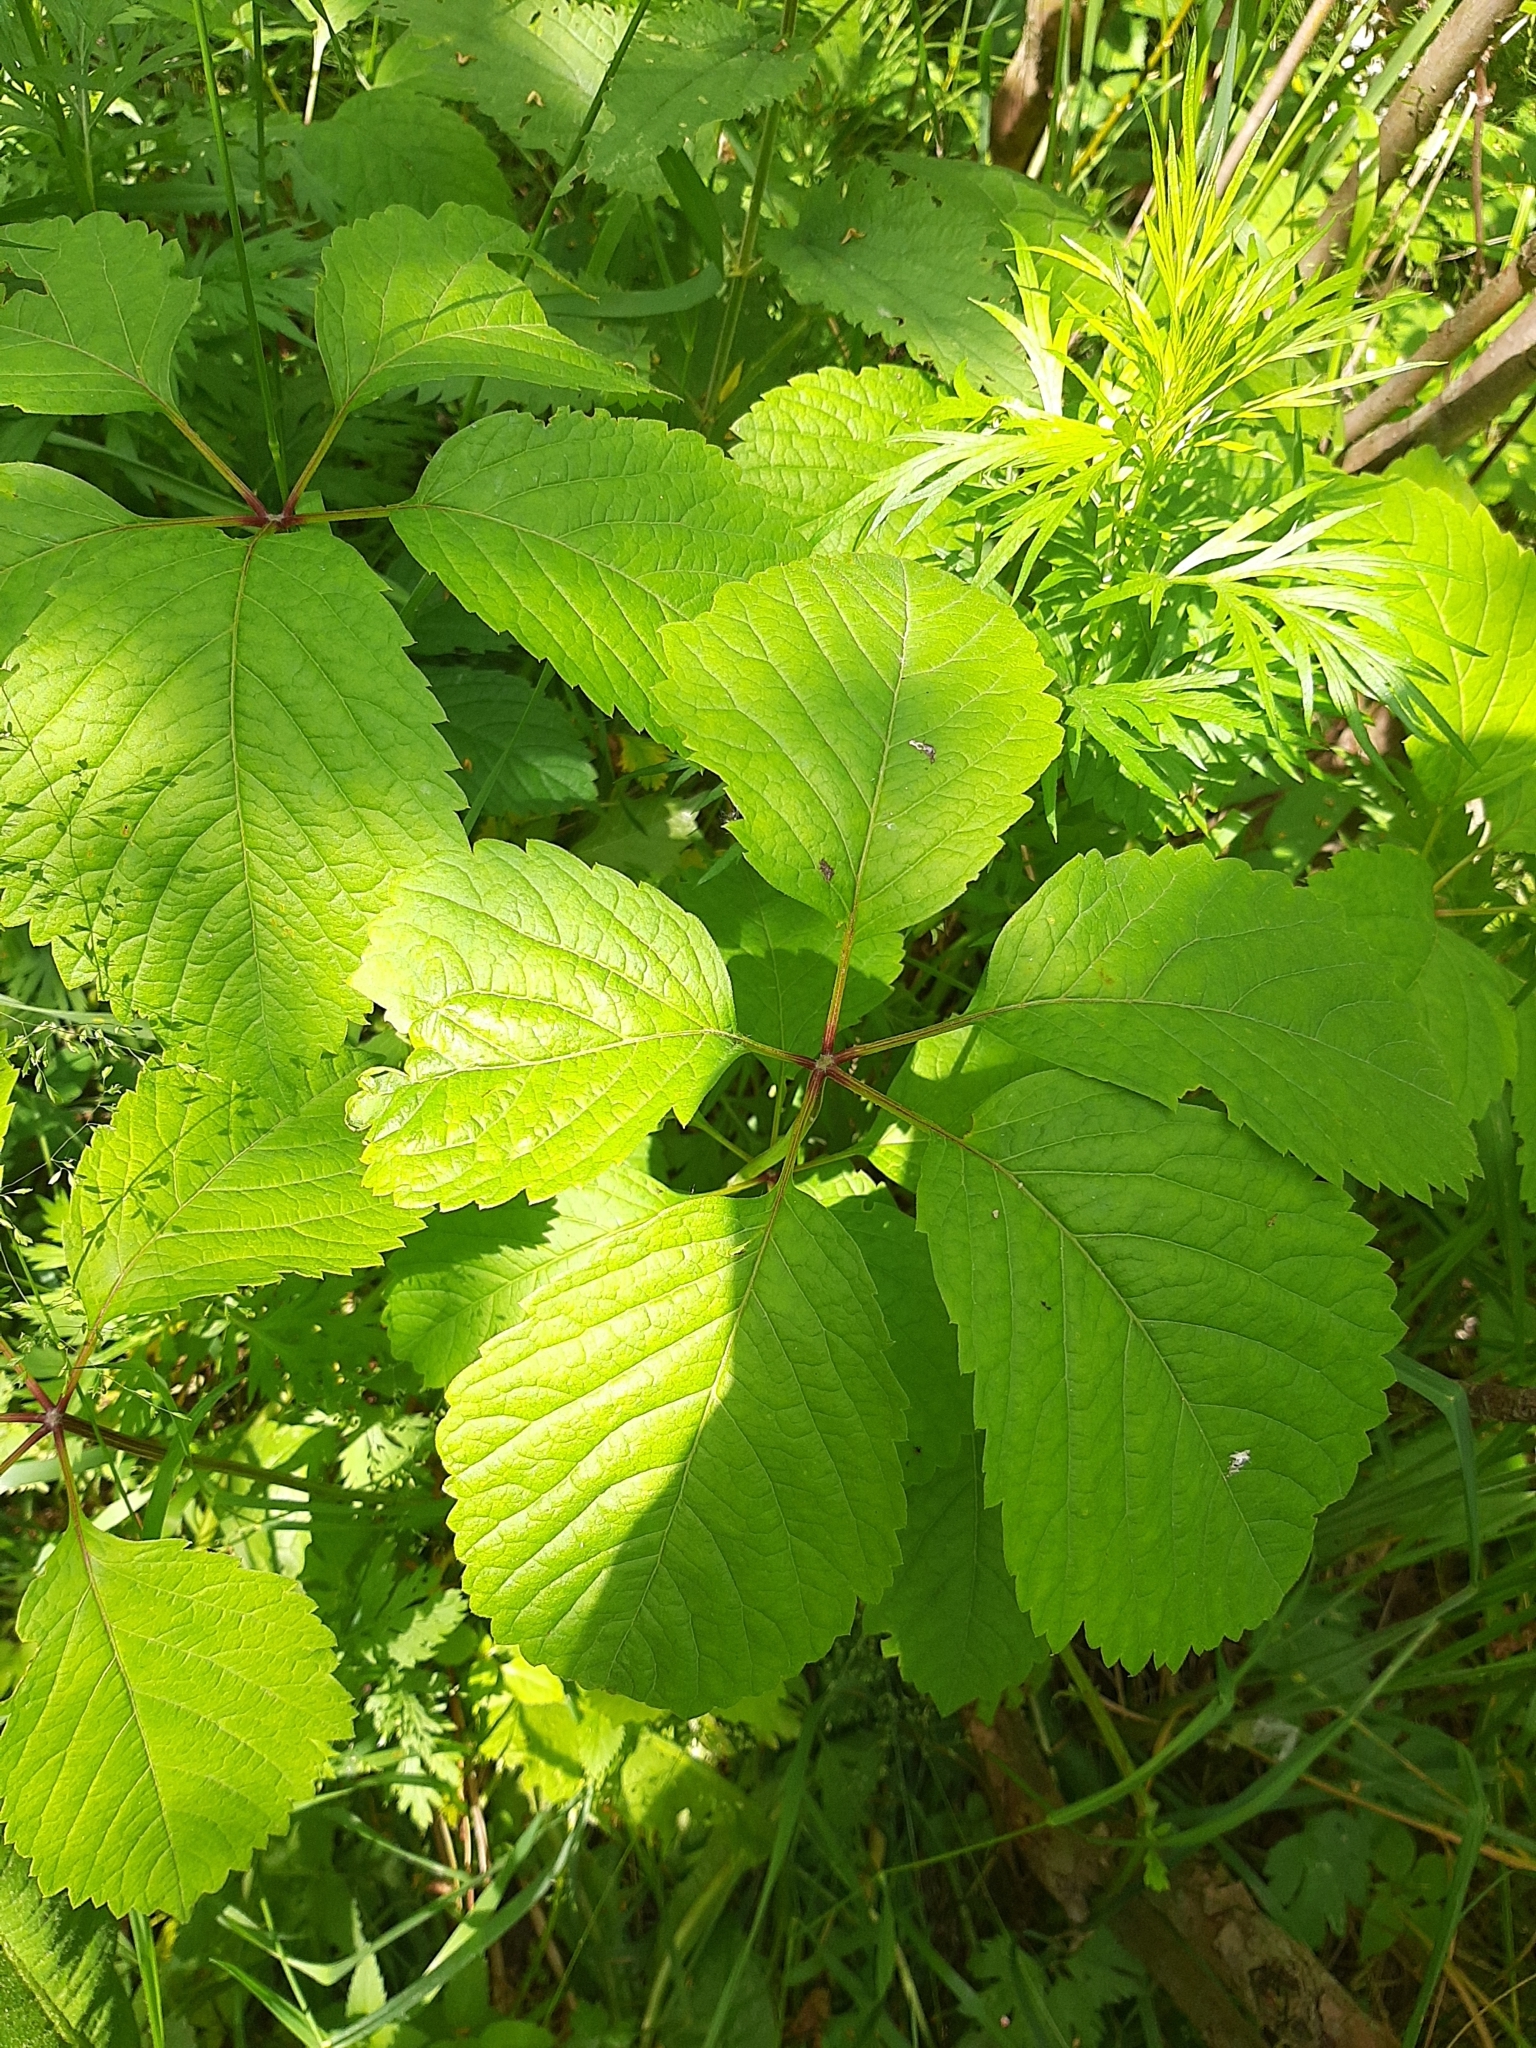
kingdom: Plantae
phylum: Tracheophyta
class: Magnoliopsida
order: Vitales
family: Vitaceae
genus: Parthenocissus
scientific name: Parthenocissus inserta
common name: False virginia-creeper
